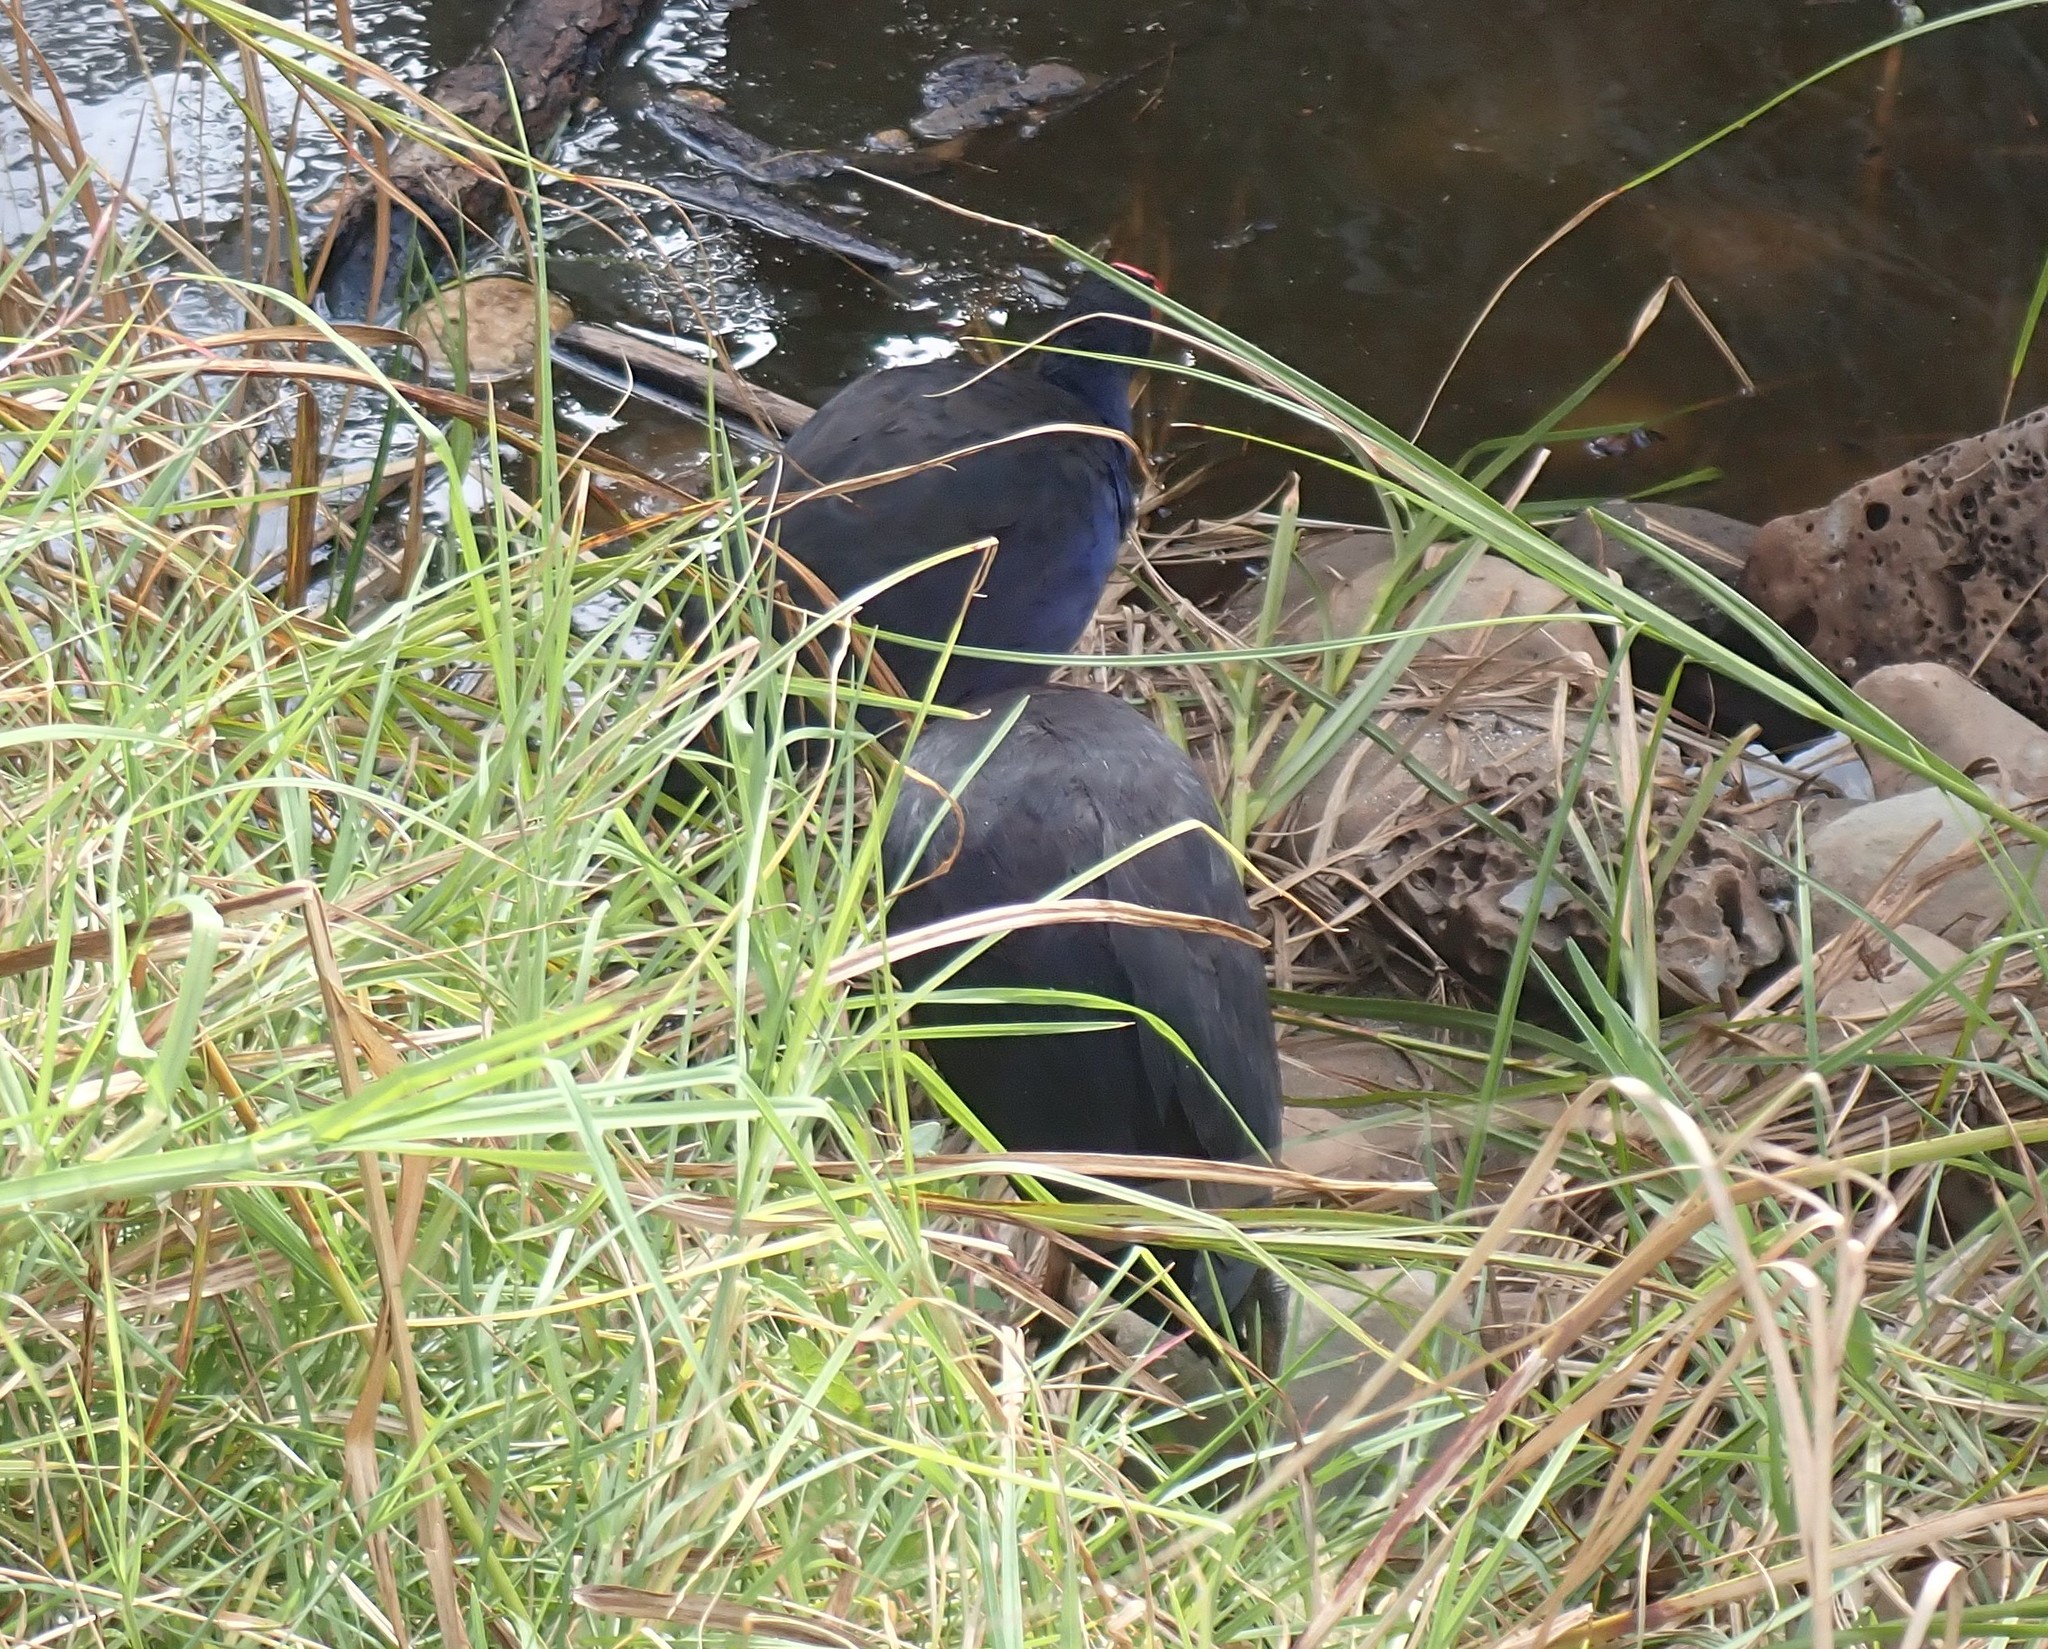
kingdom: Animalia
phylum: Chordata
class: Aves
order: Gruiformes
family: Rallidae
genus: Porphyrio
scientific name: Porphyrio melanotus
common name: Australasian swamphen
